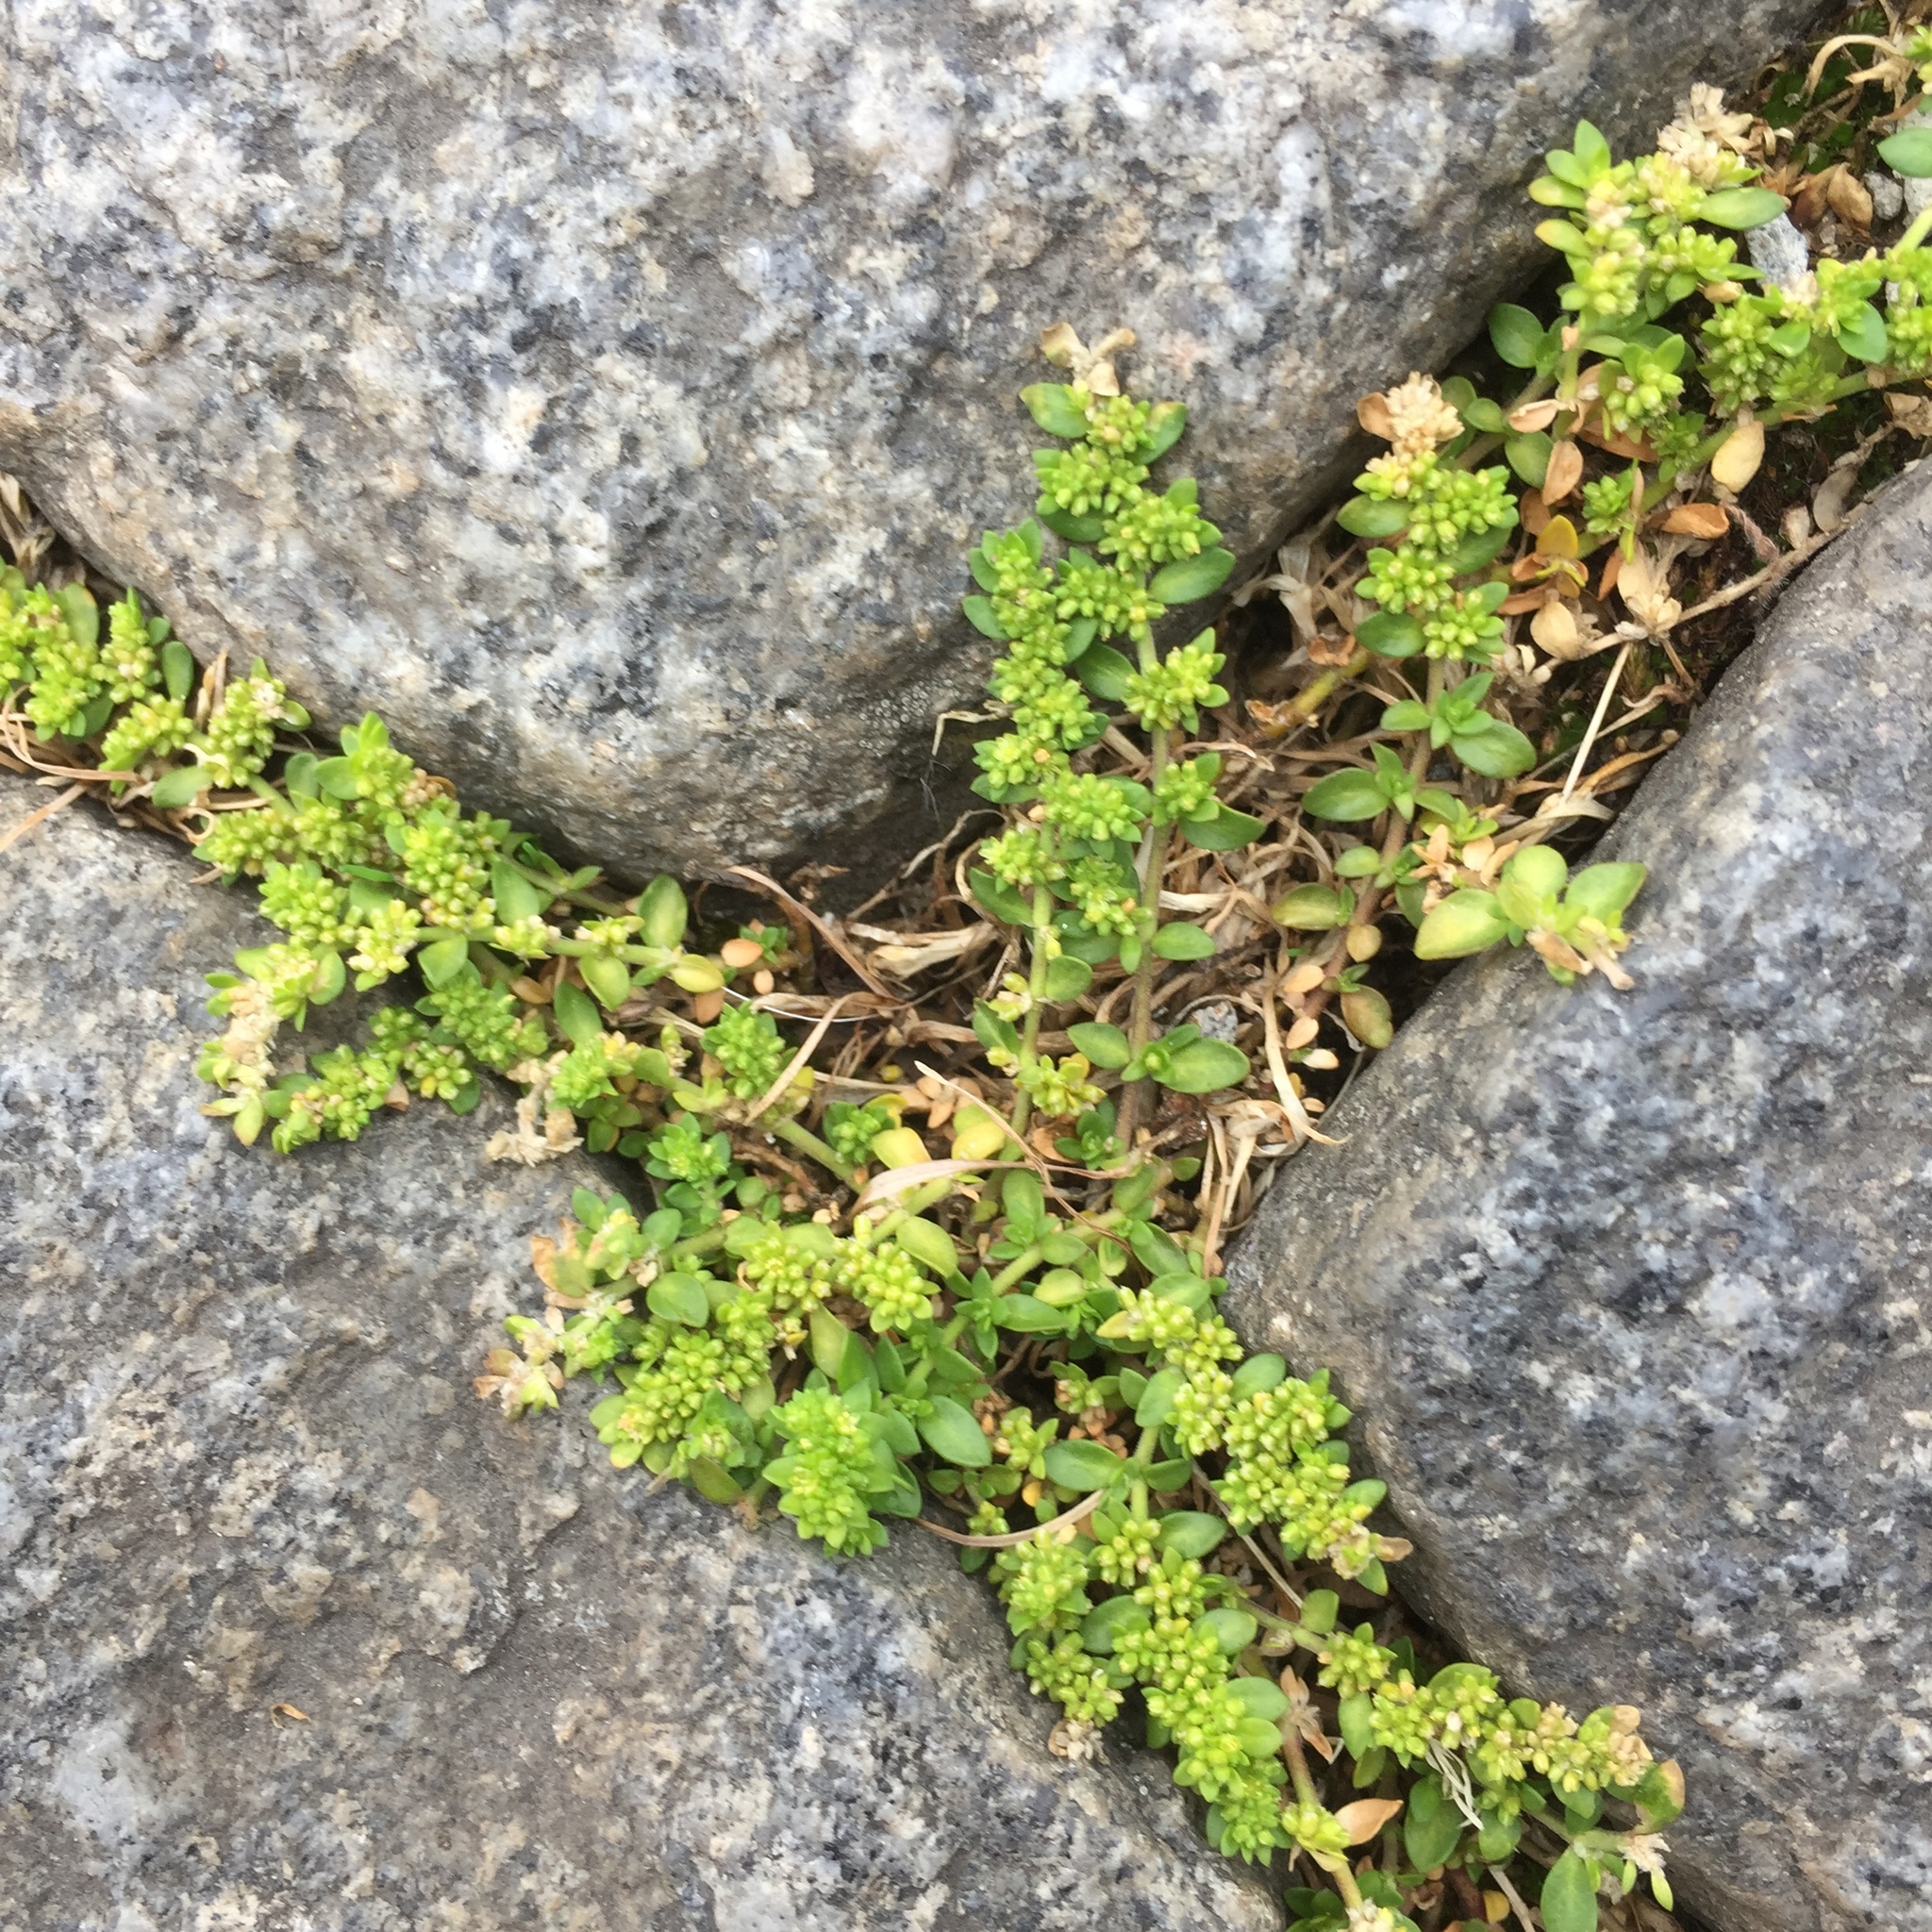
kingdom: Plantae
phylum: Tracheophyta
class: Magnoliopsida
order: Caryophyllales
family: Caryophyllaceae
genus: Herniaria
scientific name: Herniaria glabra
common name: Smooth rupturewort
